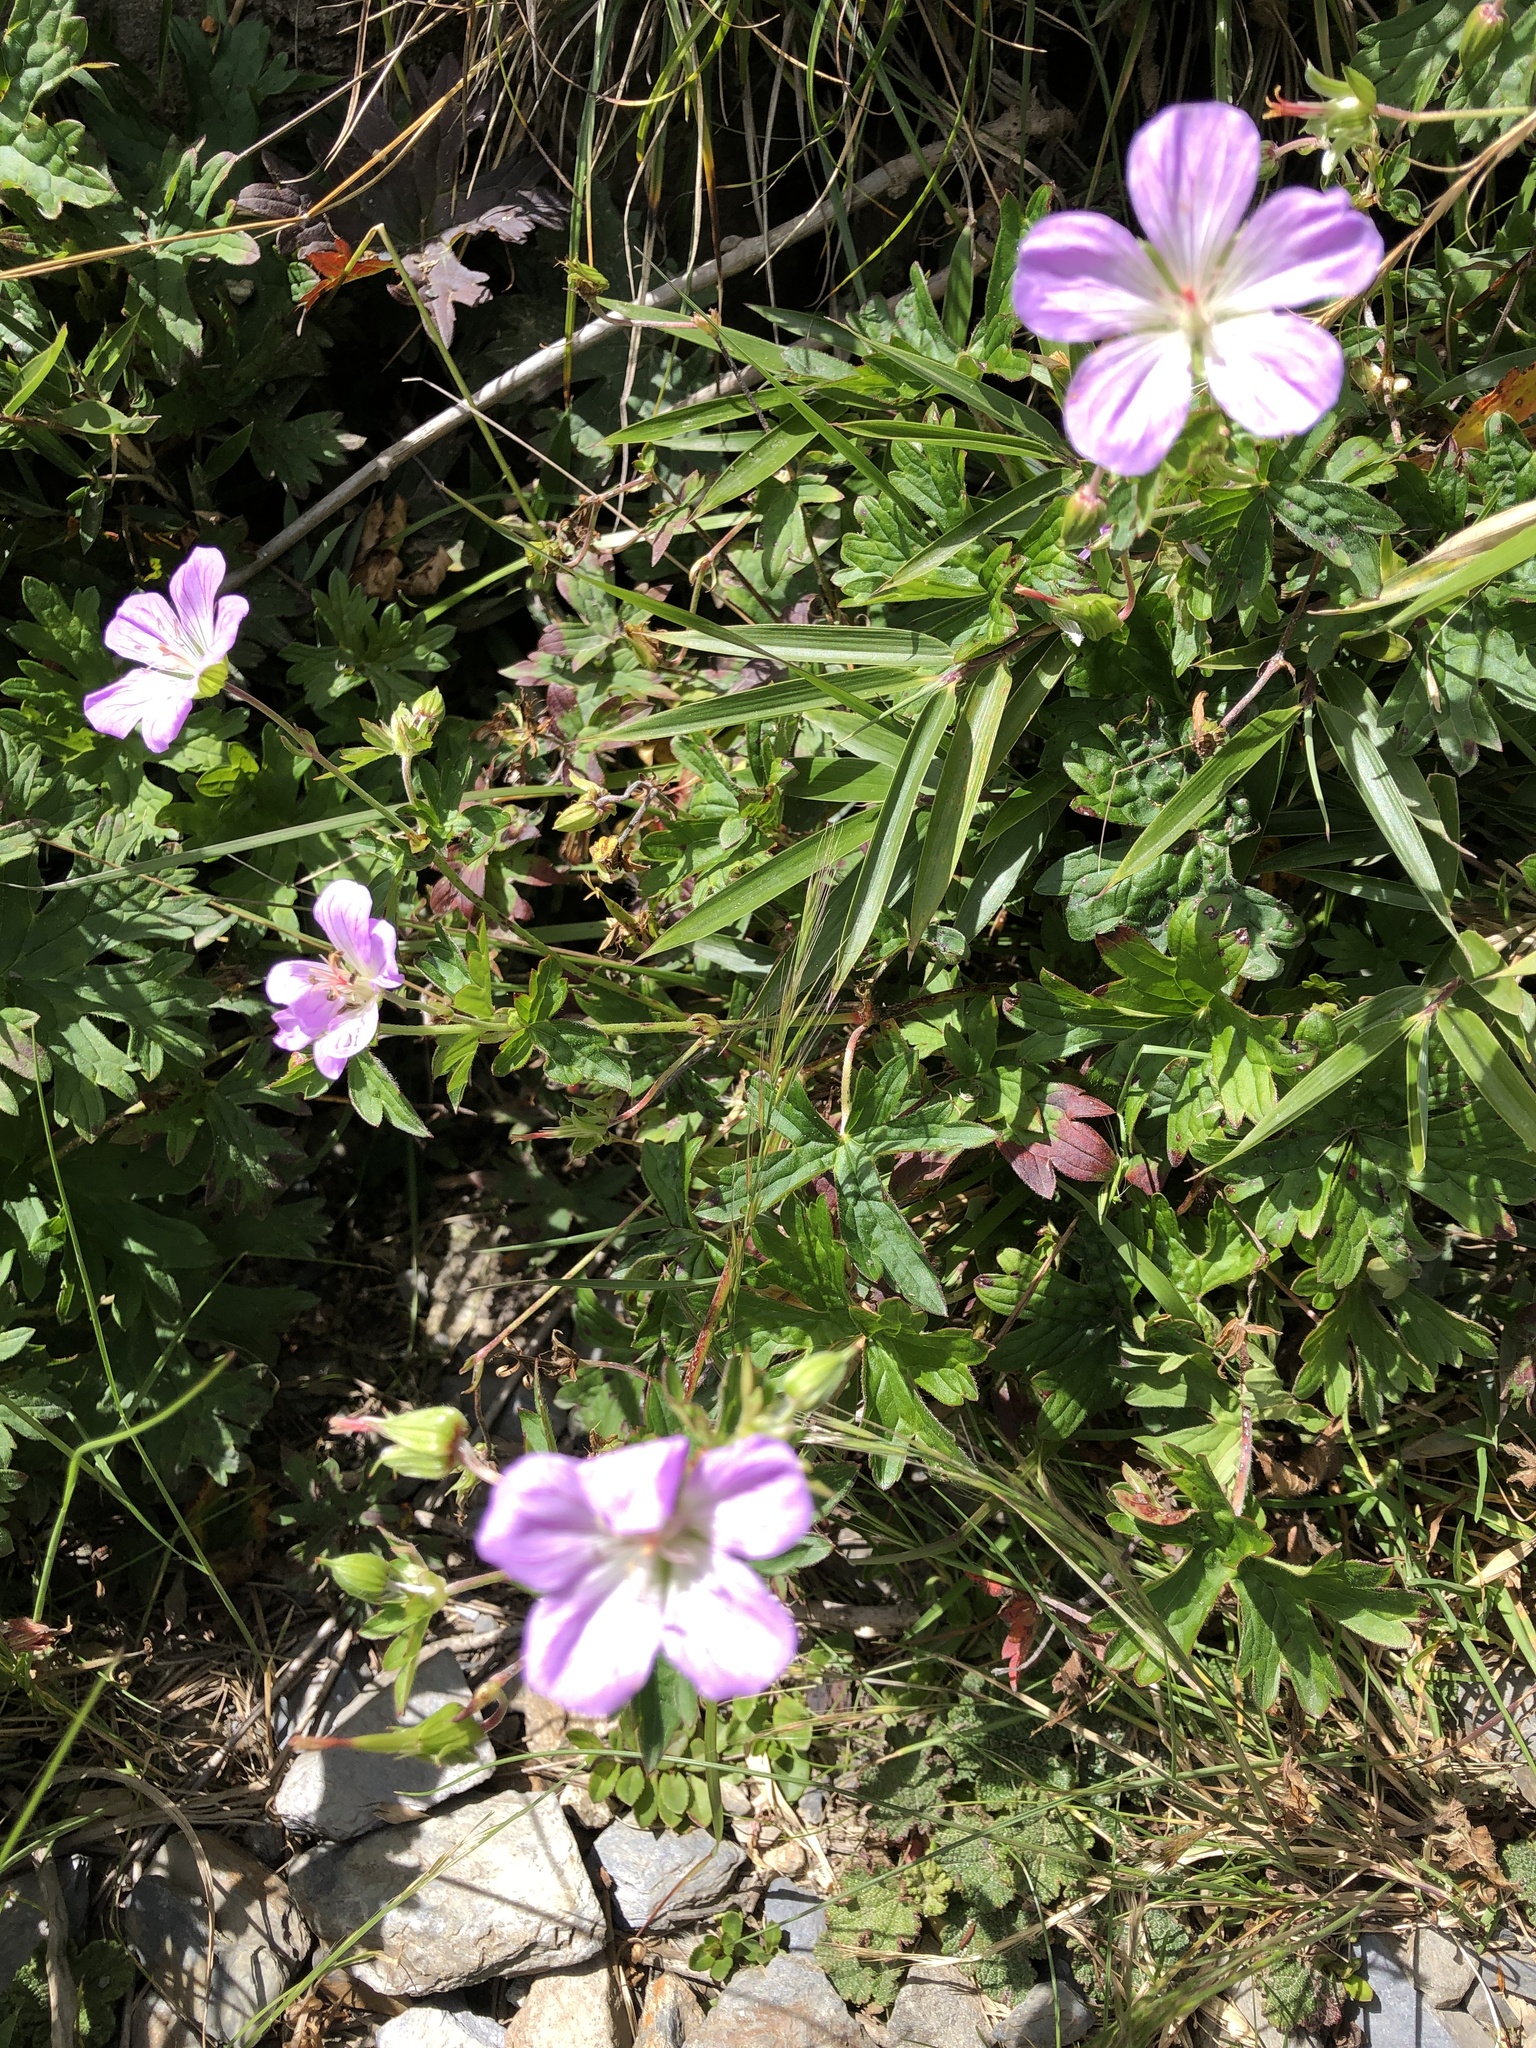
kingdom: Plantae
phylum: Tracheophyta
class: Magnoliopsida
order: Geraniales
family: Geraniaceae
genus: Geranium
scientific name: Geranium hayatanum
